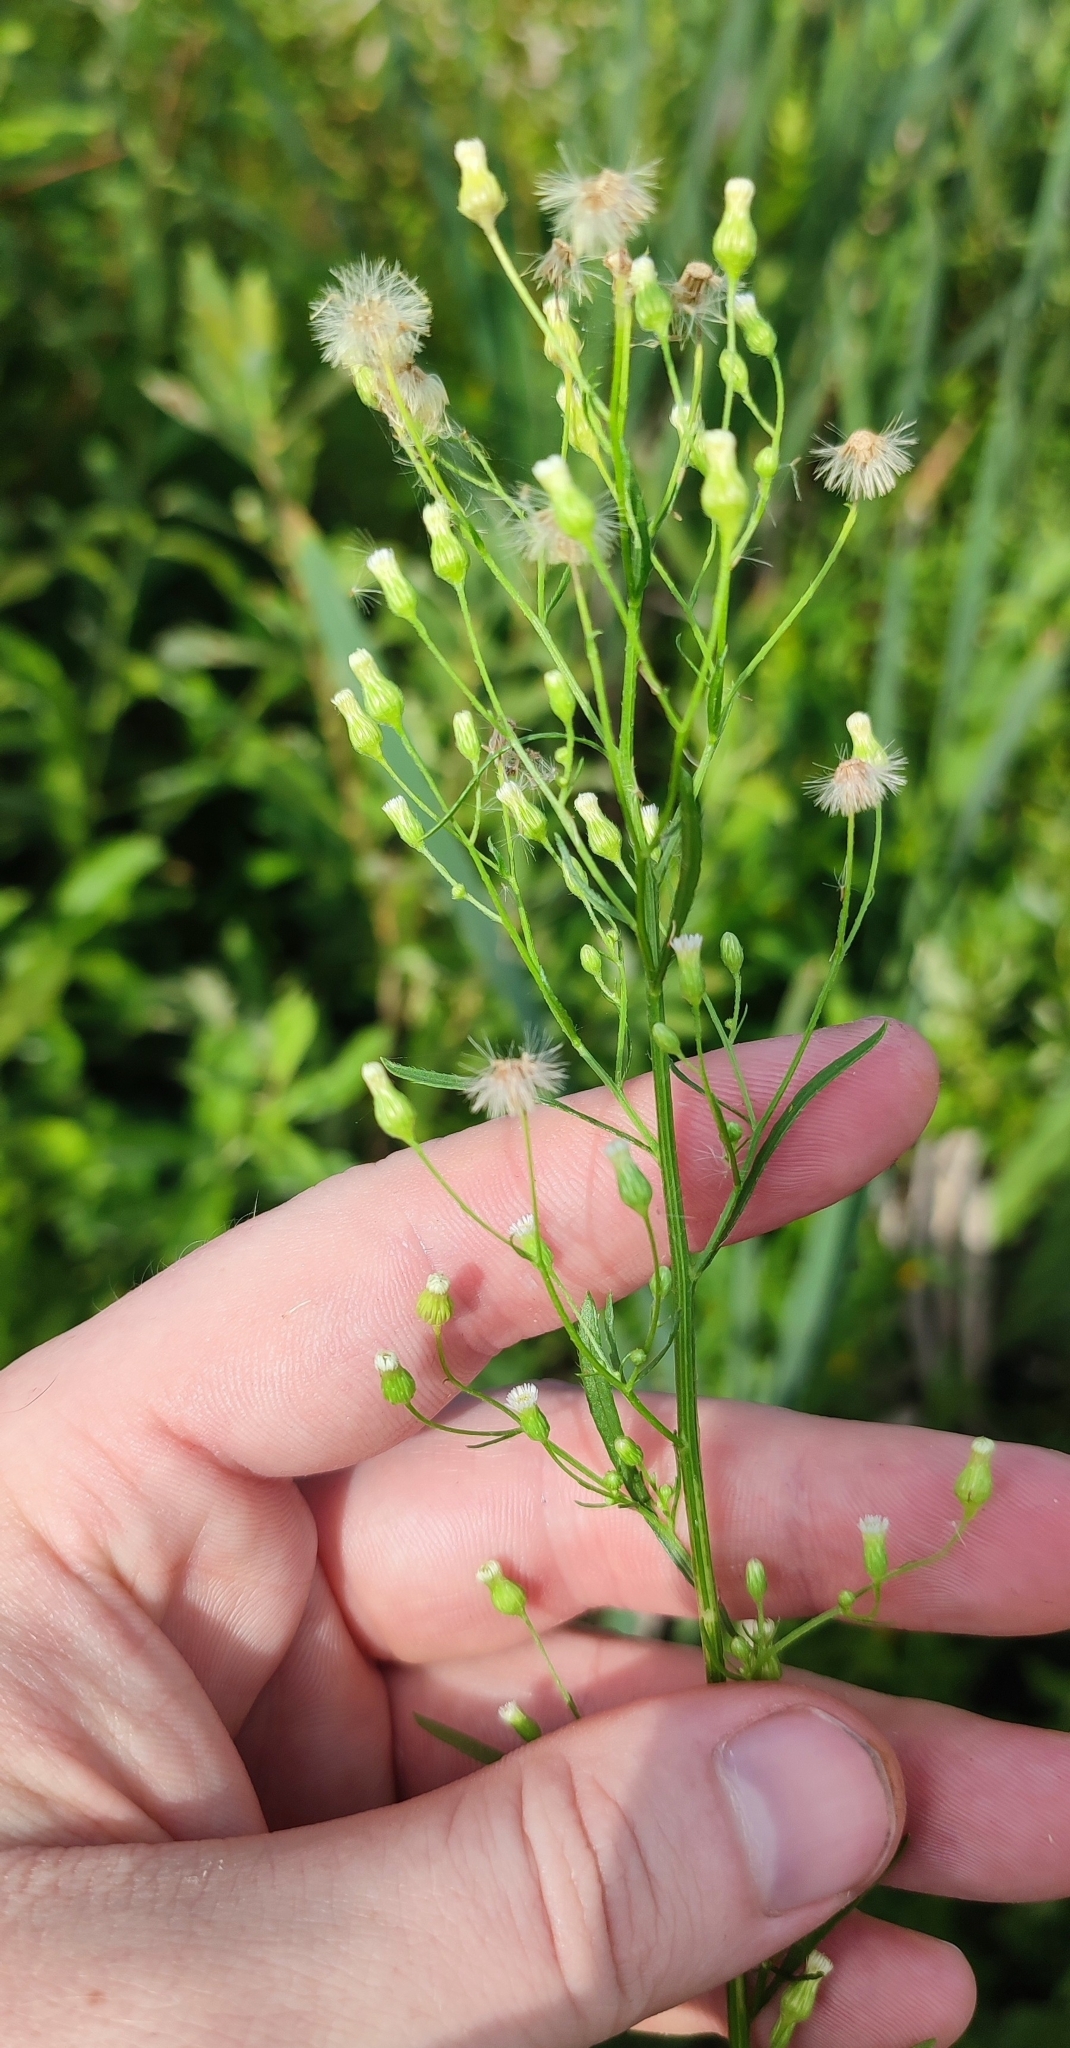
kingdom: Plantae
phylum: Tracheophyta
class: Magnoliopsida
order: Asterales
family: Asteraceae
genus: Erigeron
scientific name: Erigeron acris
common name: Blue fleabane
